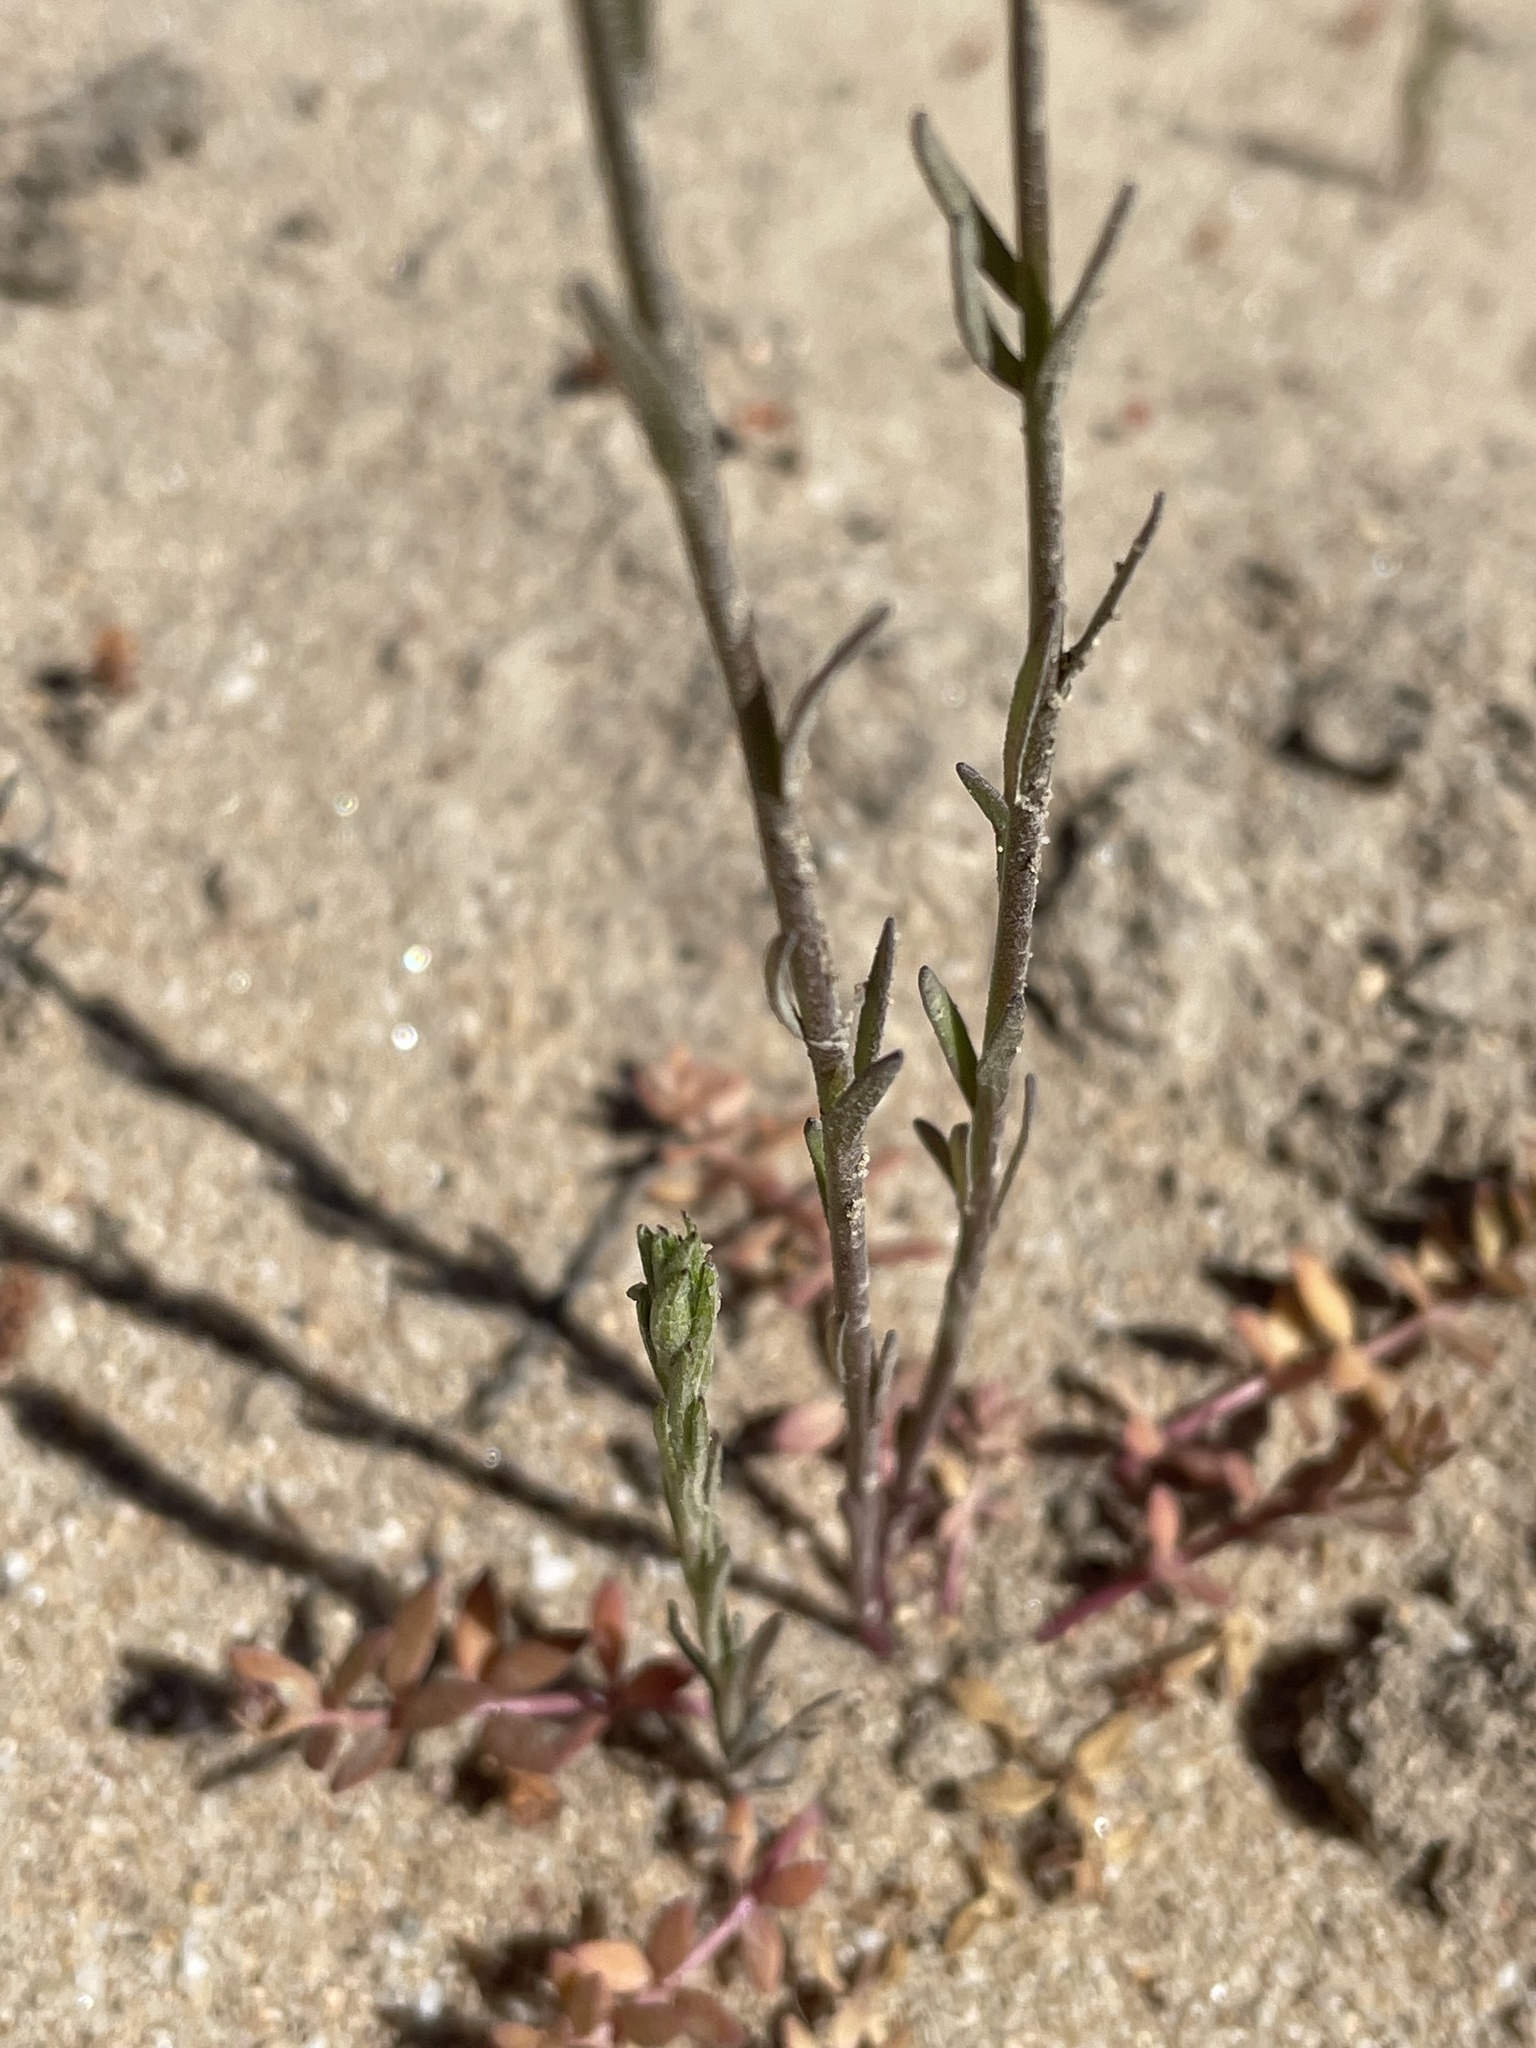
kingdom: Plantae
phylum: Tracheophyta
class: Magnoliopsida
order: Lamiales
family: Plantaginaceae
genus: Nuttallanthus
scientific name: Nuttallanthus texanus
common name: Texas toadflax
